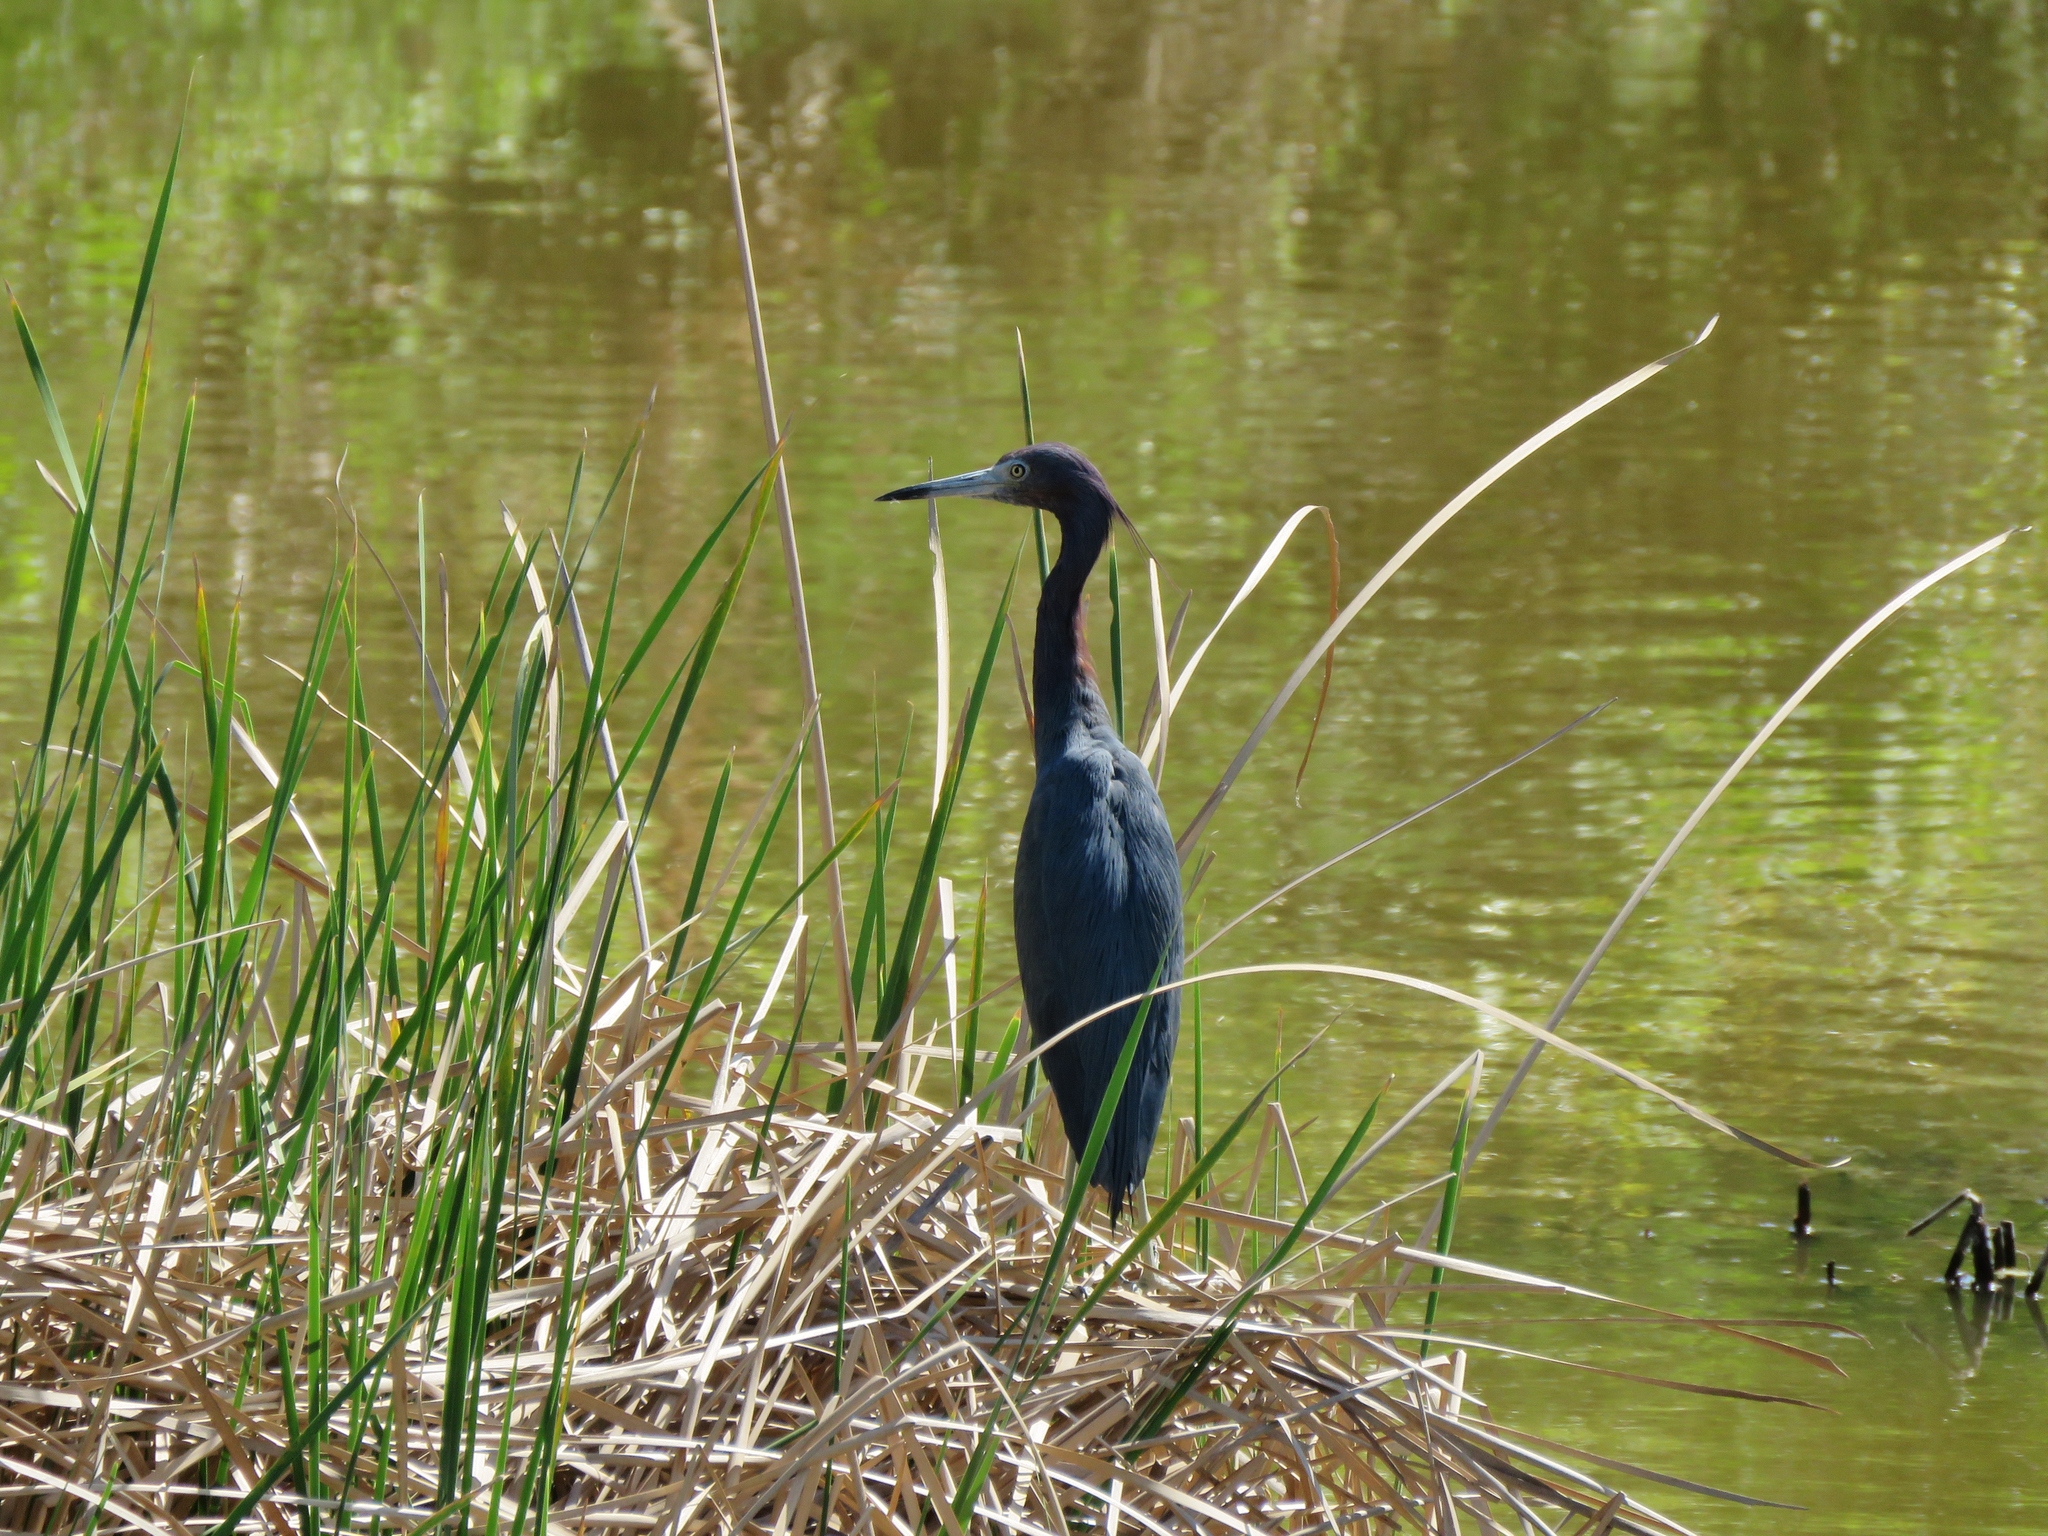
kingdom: Animalia
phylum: Chordata
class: Aves
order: Pelecaniformes
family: Ardeidae
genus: Egretta
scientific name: Egretta caerulea
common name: Little blue heron
